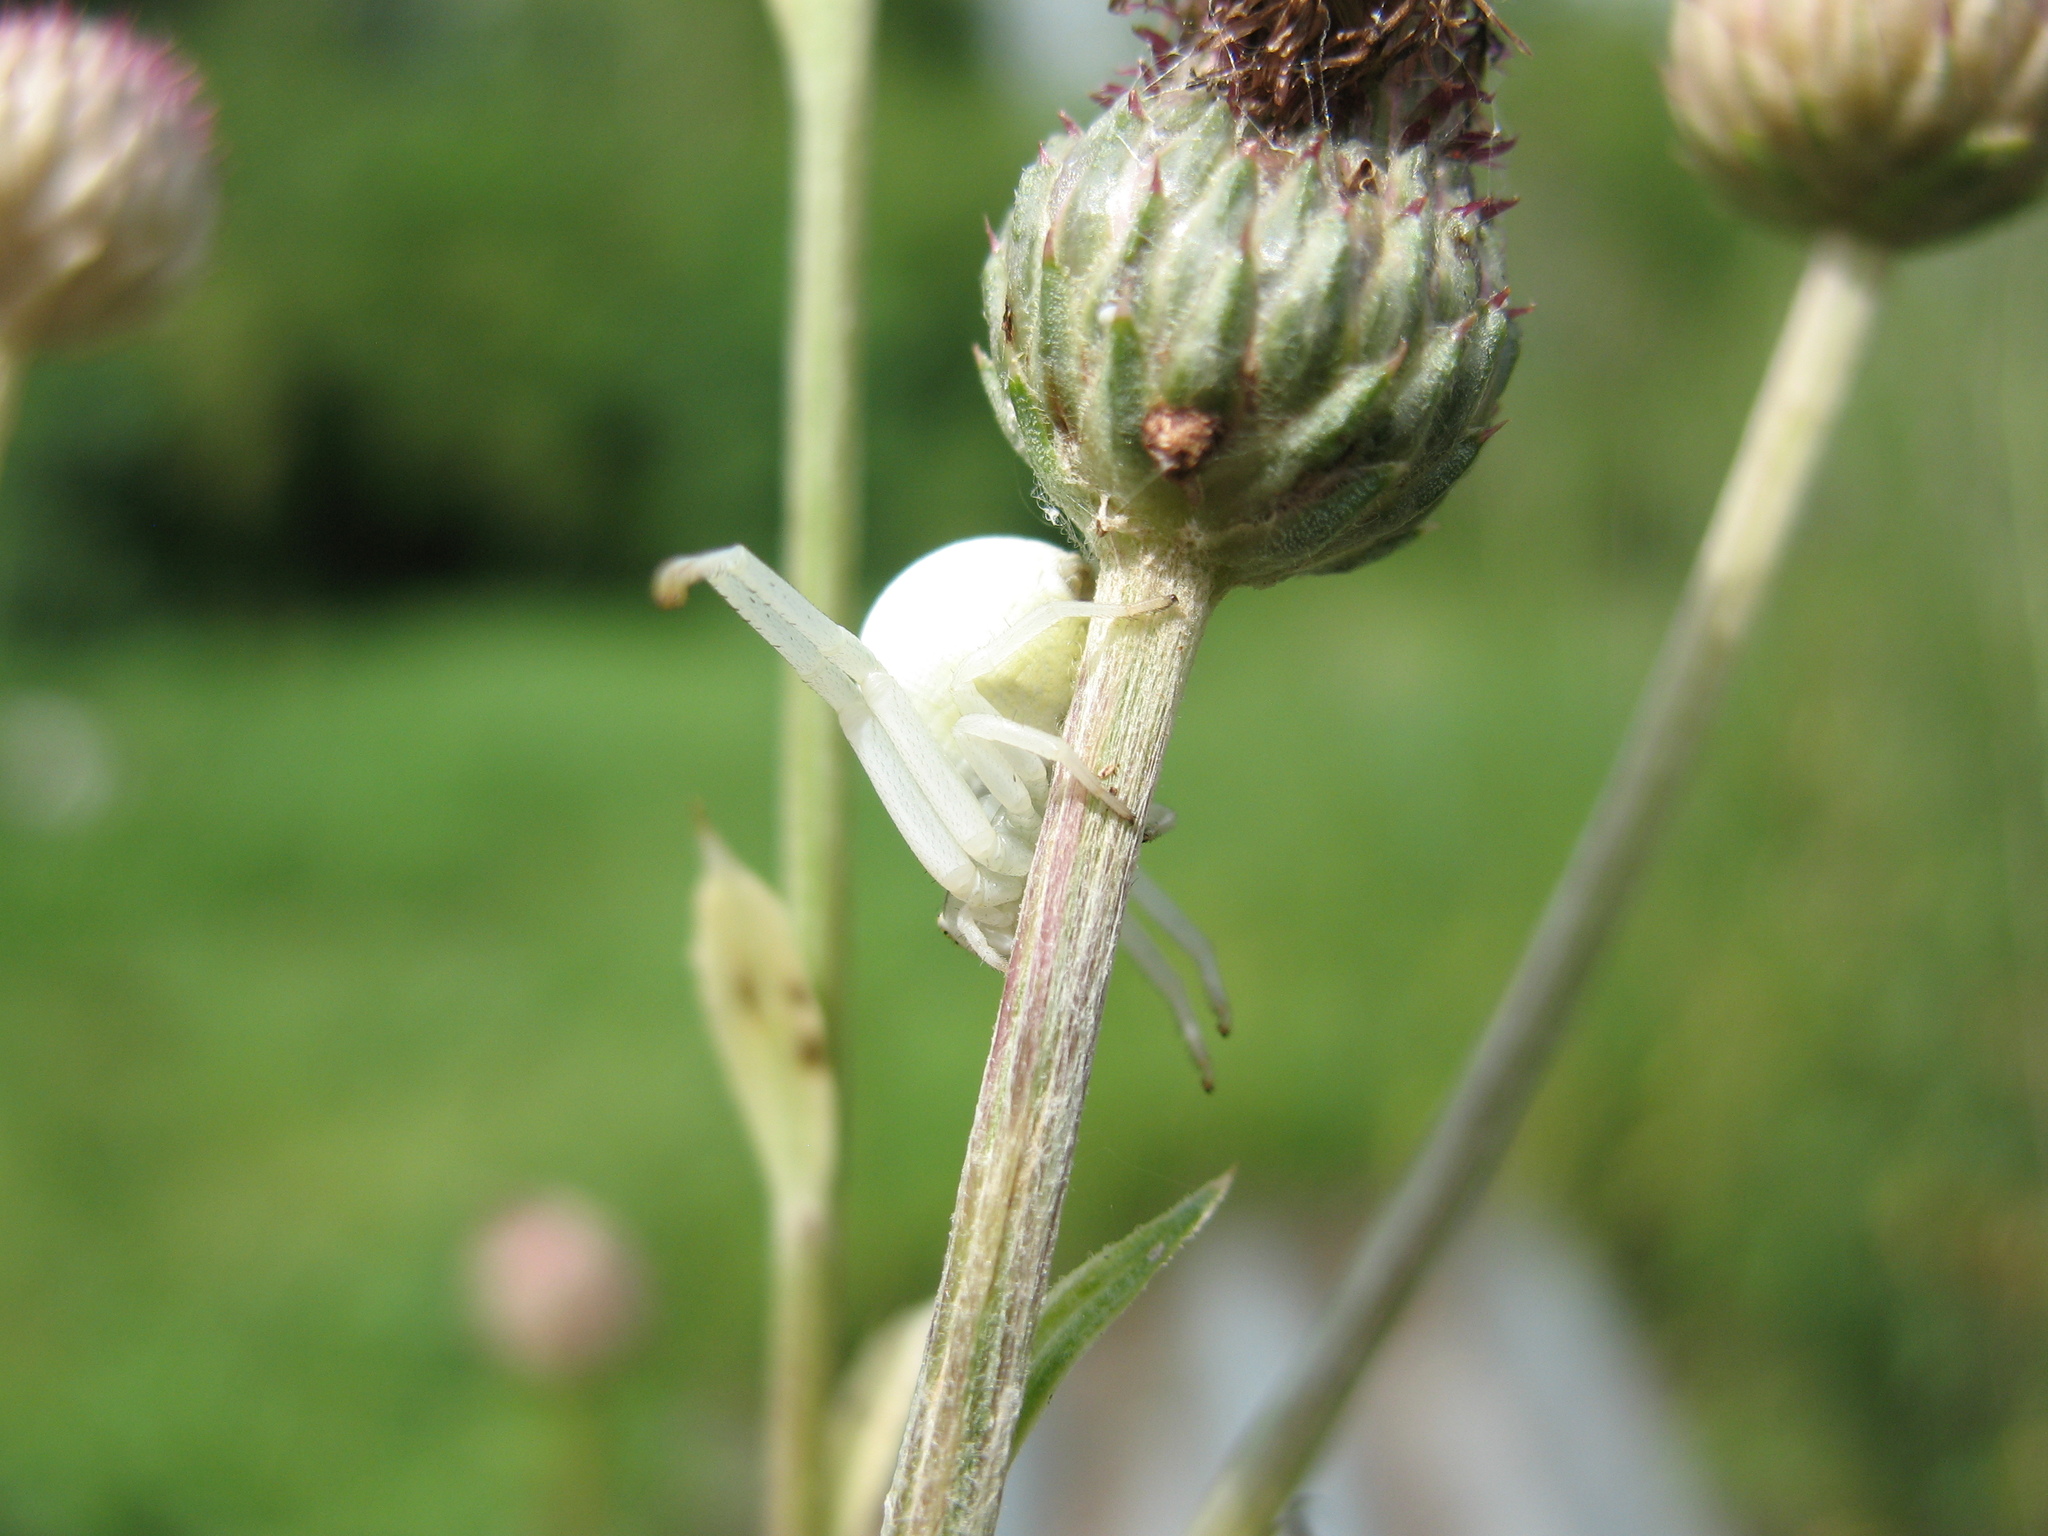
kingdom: Animalia
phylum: Arthropoda
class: Arachnida
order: Araneae
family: Thomisidae
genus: Misumena
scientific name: Misumena vatia
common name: Goldenrod crab spider
